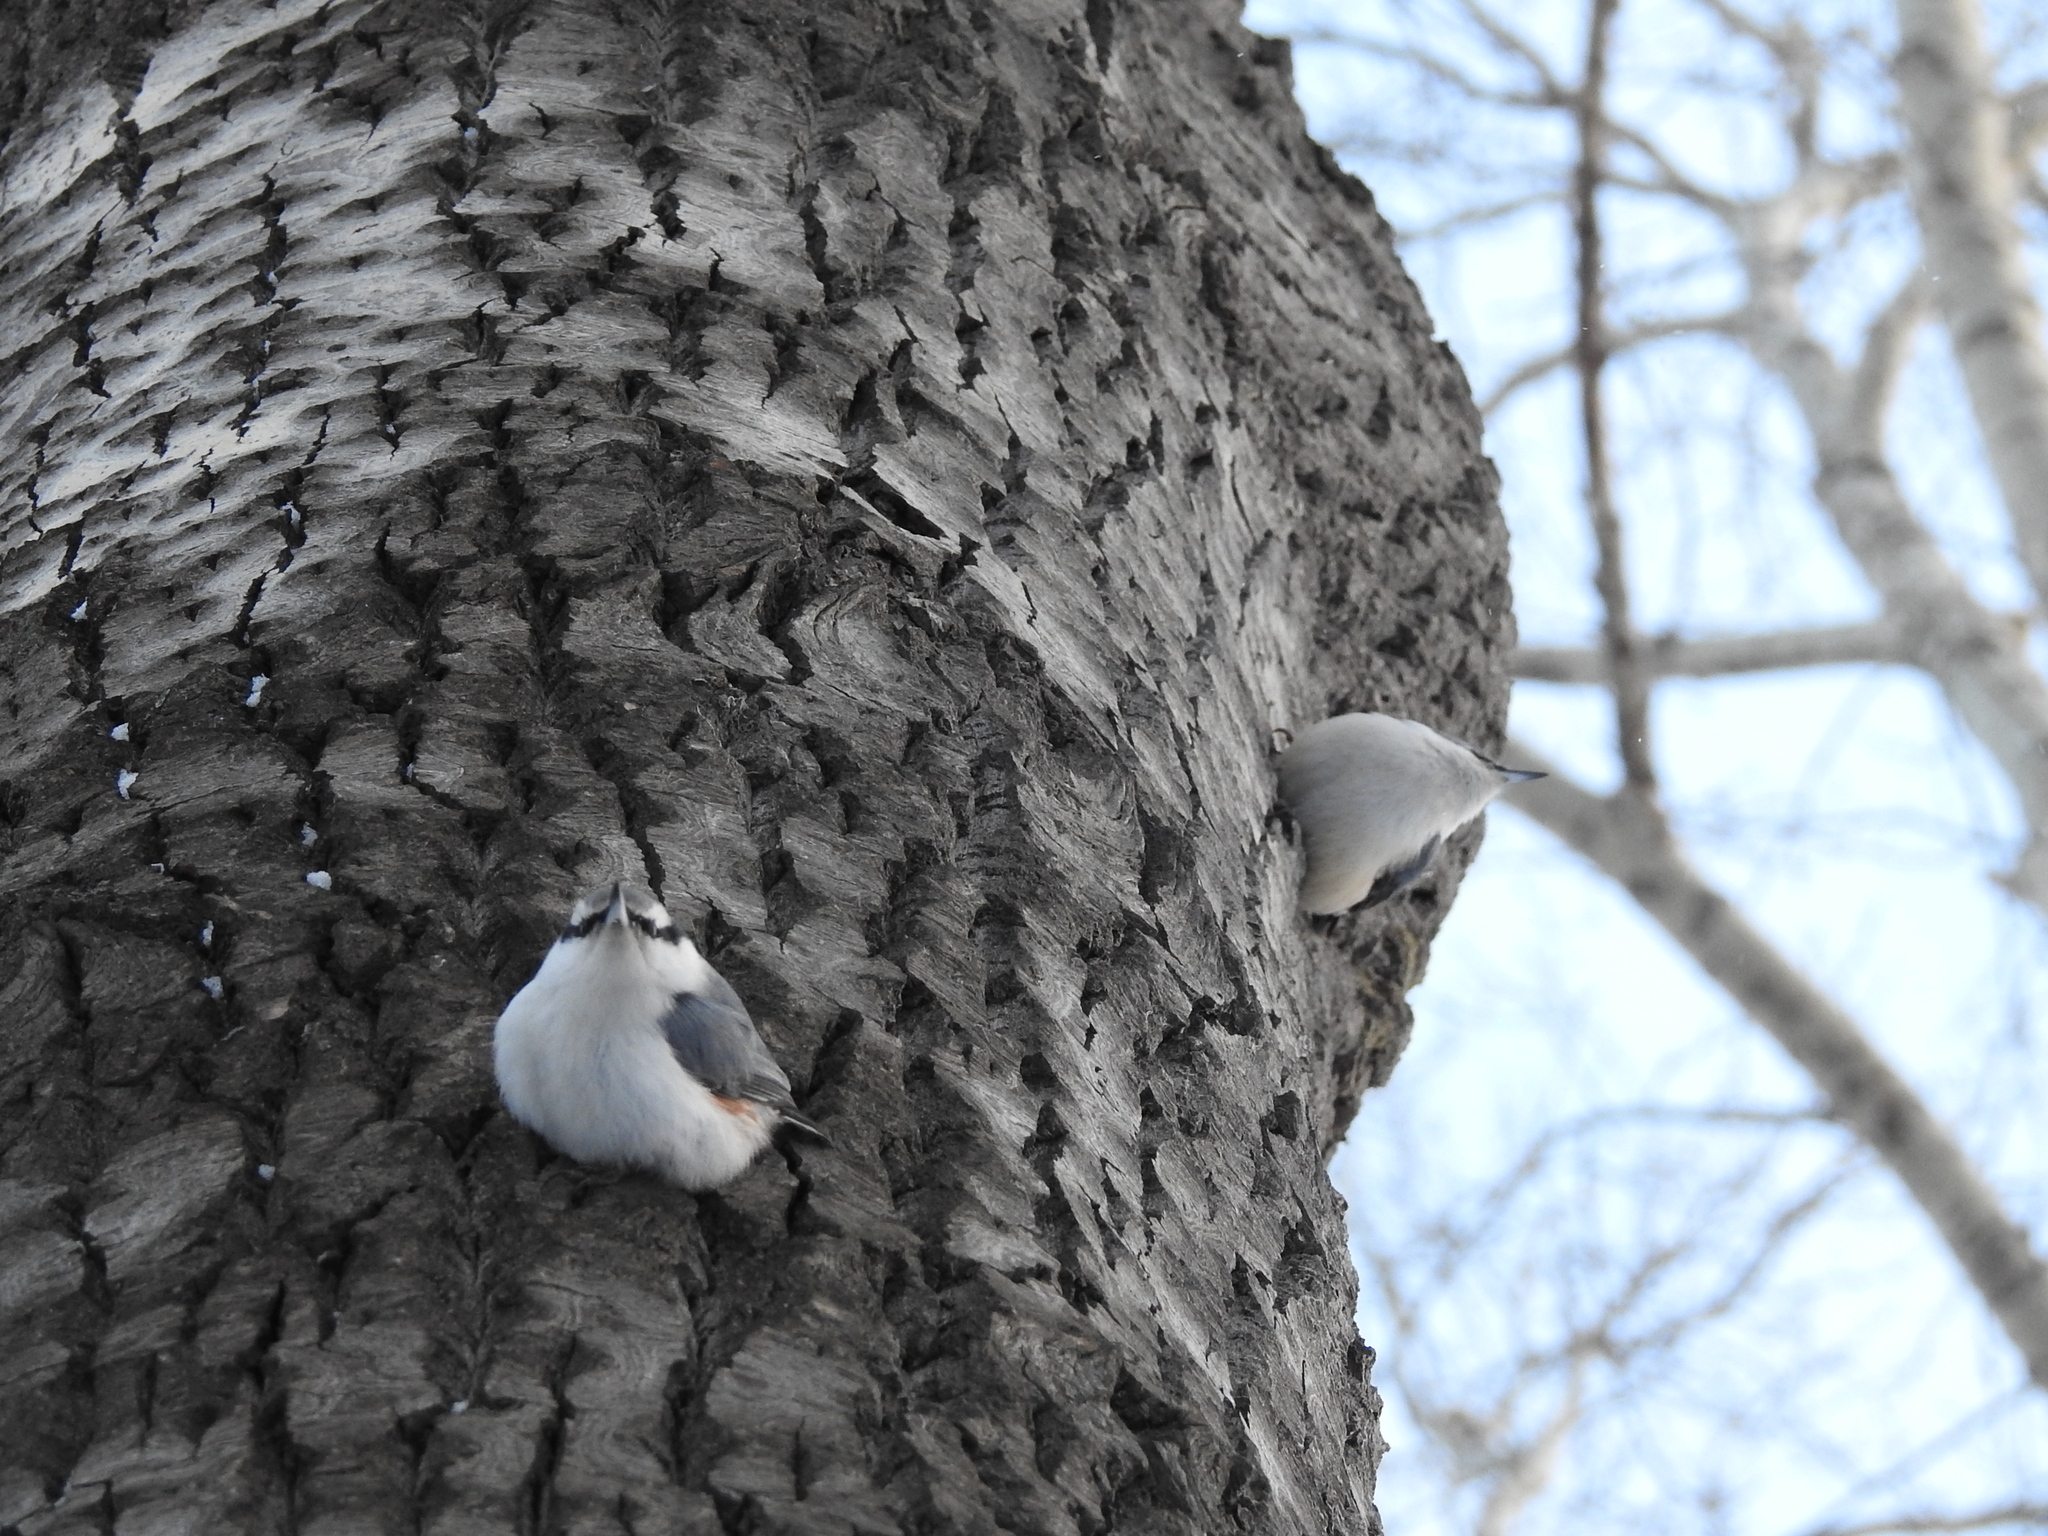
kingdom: Animalia
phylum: Chordata
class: Aves
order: Passeriformes
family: Sittidae
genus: Sitta
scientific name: Sitta europaea
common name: Eurasian nuthatch
